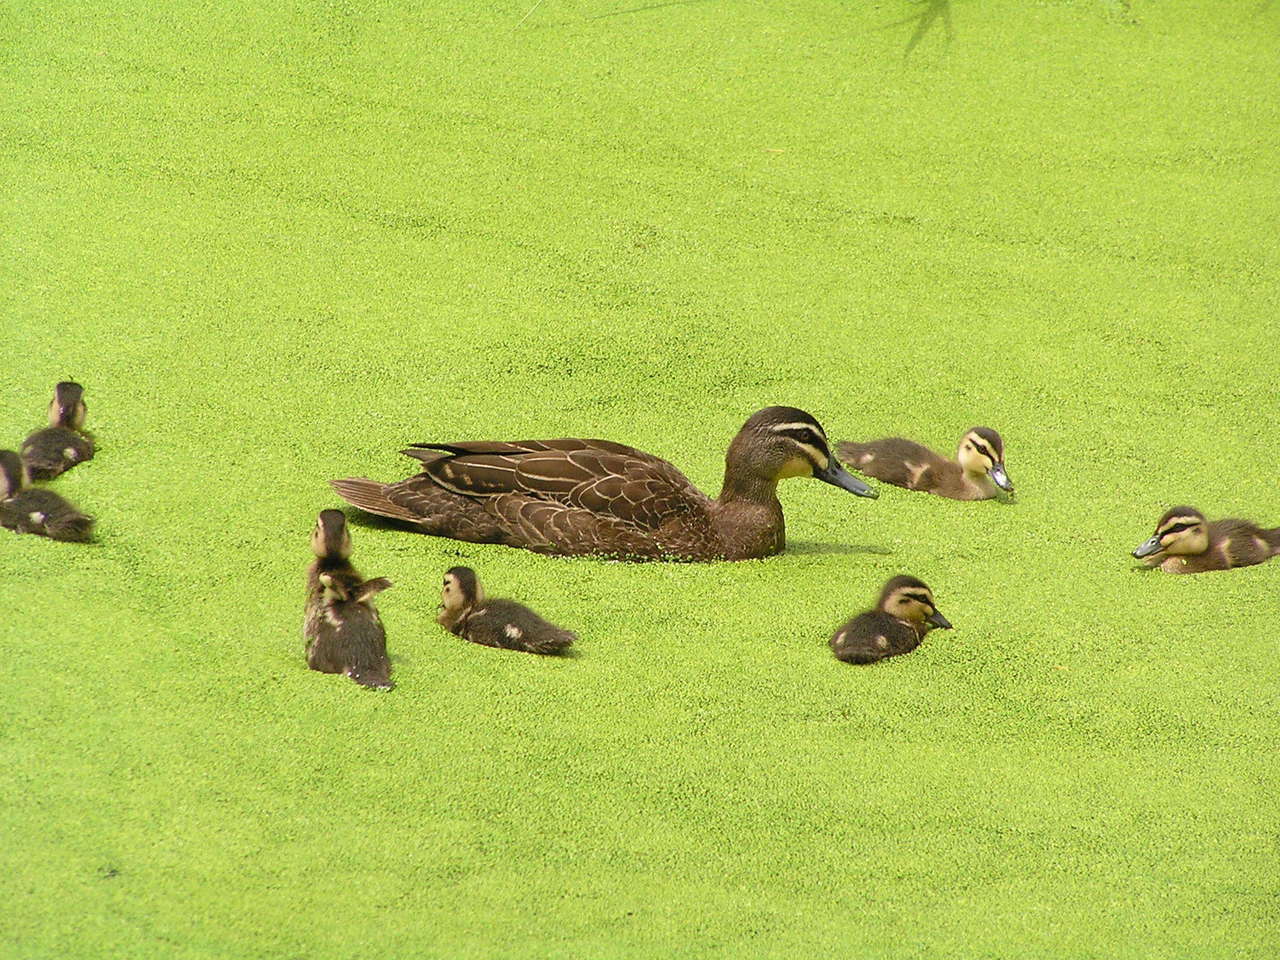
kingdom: Animalia
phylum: Chordata
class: Aves
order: Anseriformes
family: Anatidae
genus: Anas
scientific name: Anas superciliosa
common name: Pacific black duck
